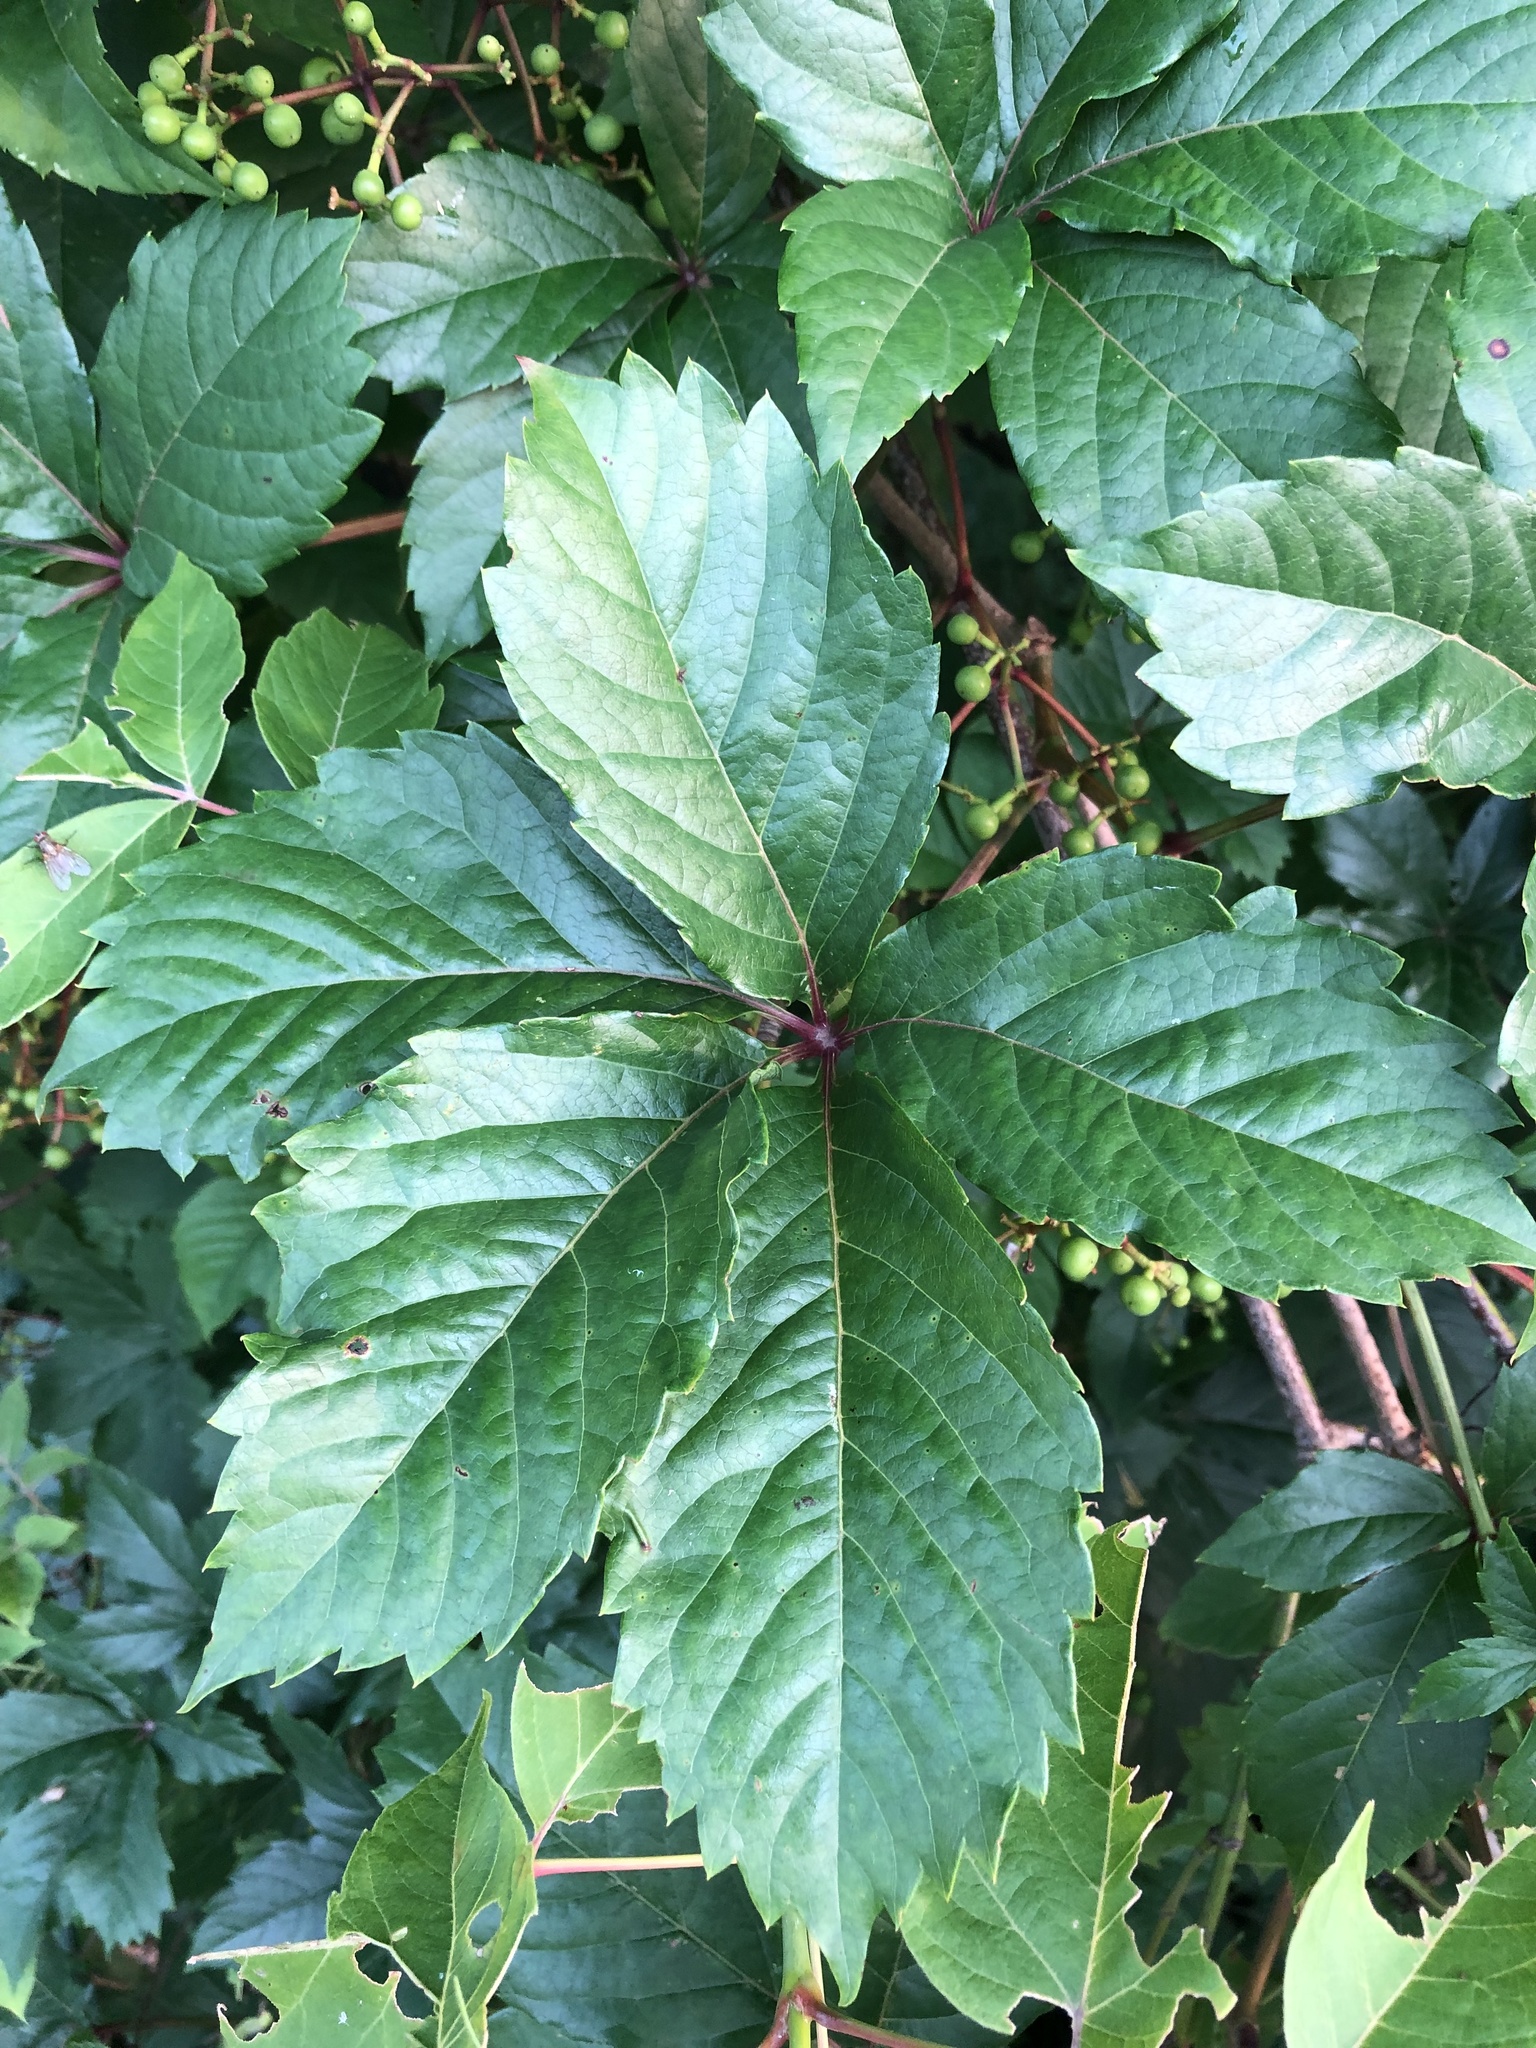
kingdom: Plantae
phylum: Tracheophyta
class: Magnoliopsida
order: Vitales
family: Vitaceae
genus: Parthenocissus
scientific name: Parthenocissus inserta
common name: False virginia-creeper
